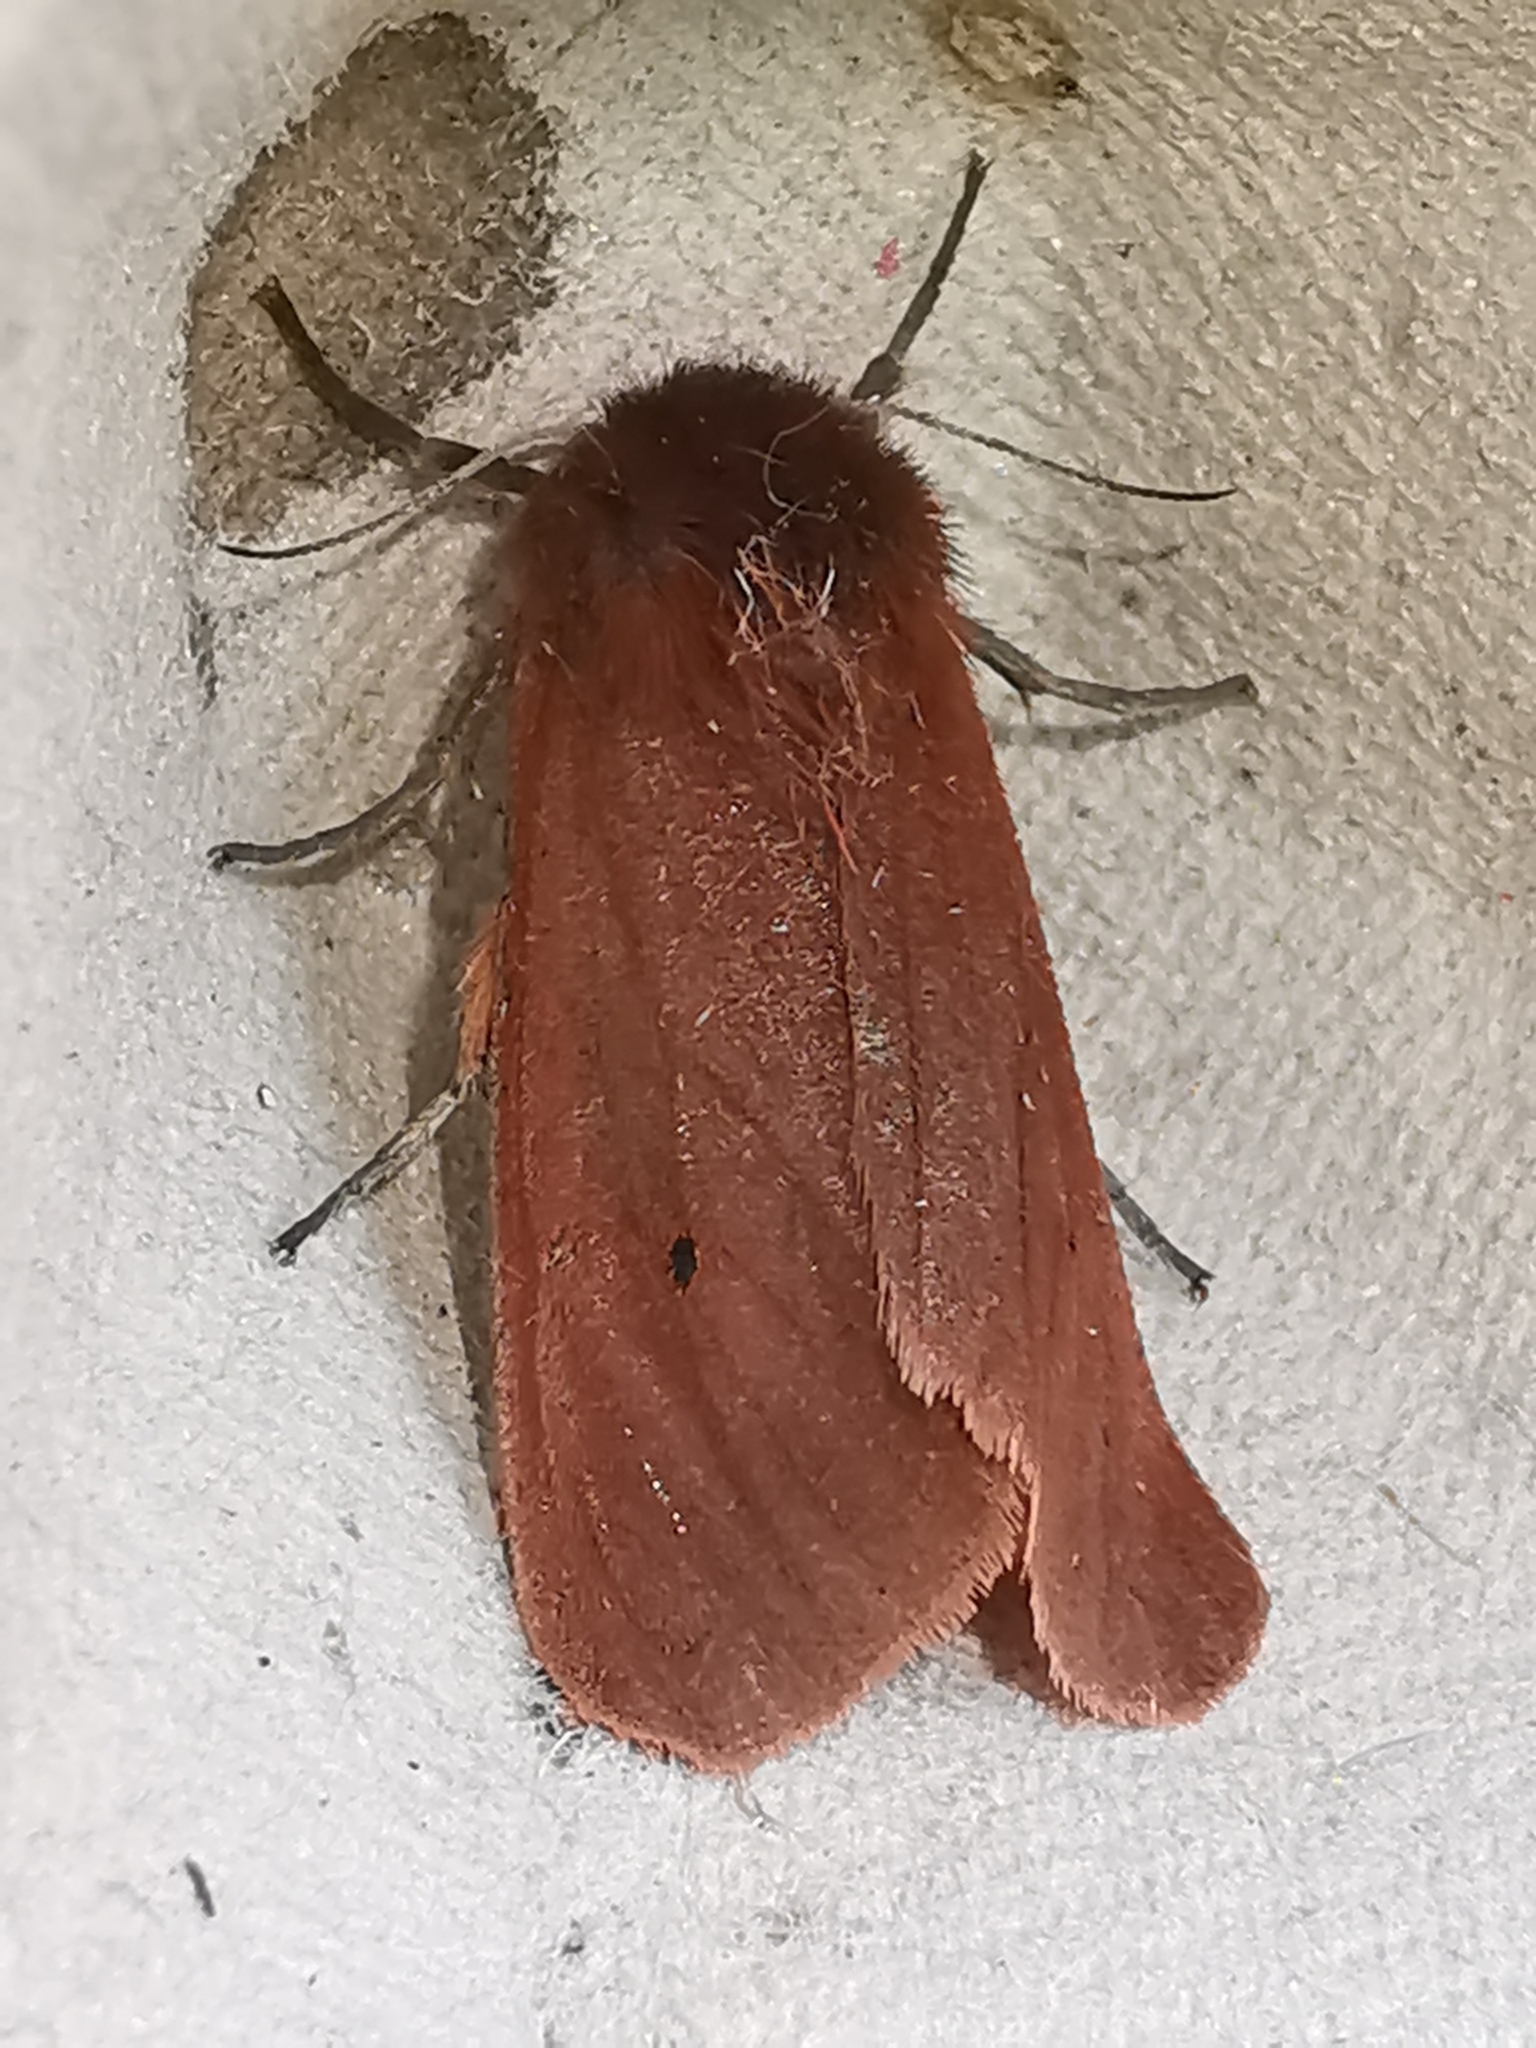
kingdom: Animalia
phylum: Arthropoda
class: Insecta
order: Lepidoptera
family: Erebidae
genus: Phragmatobia
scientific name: Phragmatobia fuliginosa
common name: Ruby tiger
